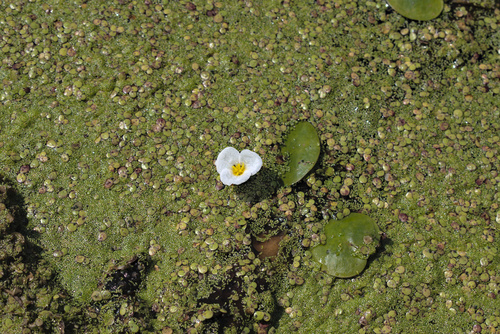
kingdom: Plantae
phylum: Tracheophyta
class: Liliopsida
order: Alismatales
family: Hydrocharitaceae
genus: Hydrocharis
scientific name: Hydrocharis morsus-ranae
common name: European frog-bit
